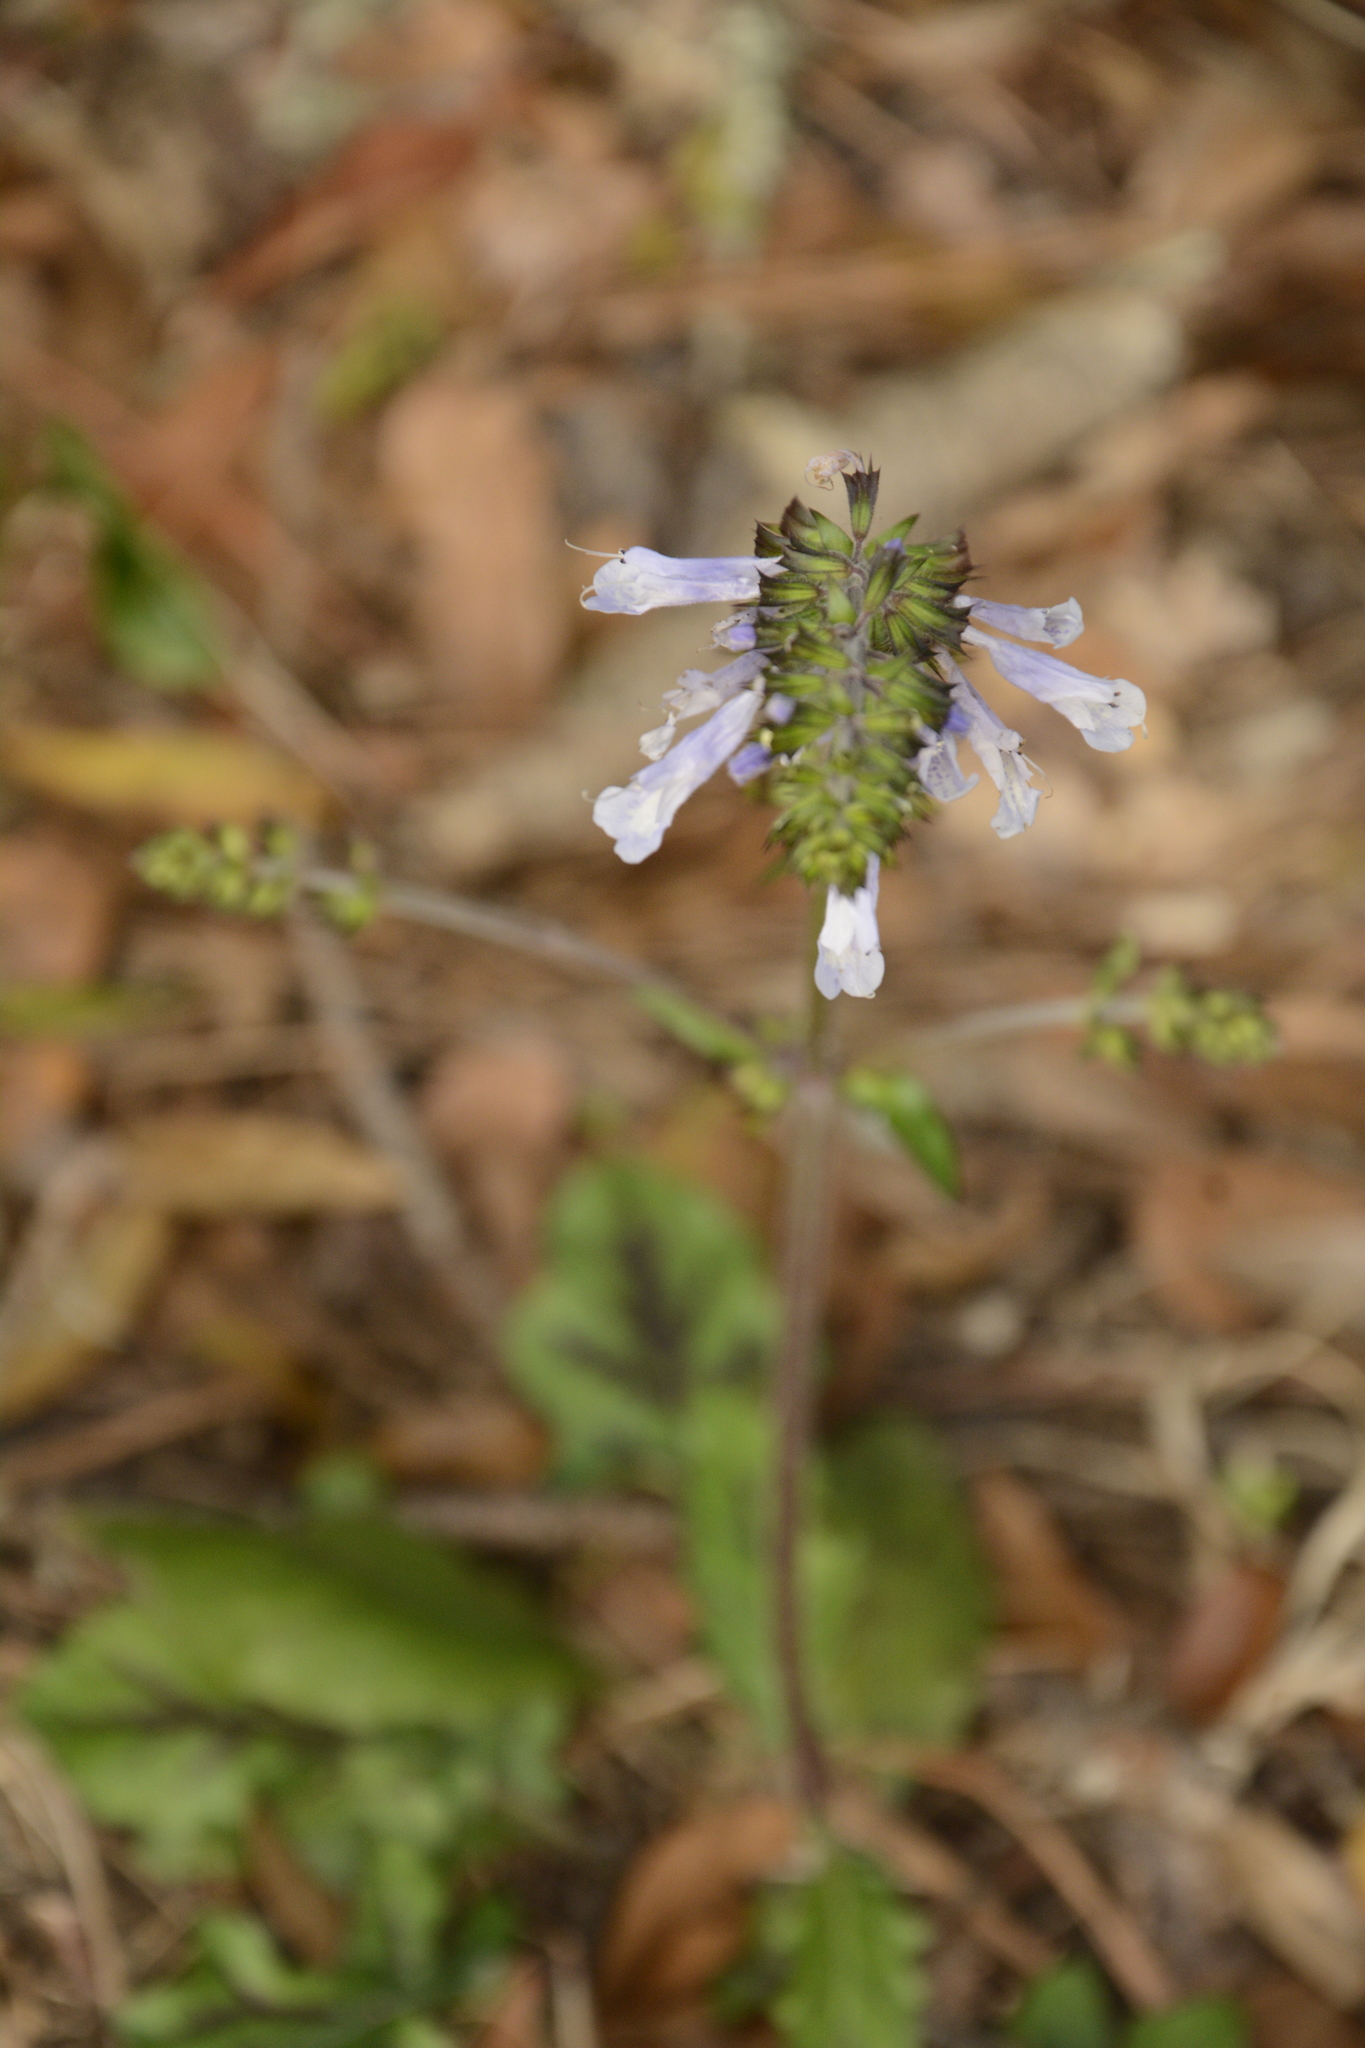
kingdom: Plantae
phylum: Tracheophyta
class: Magnoliopsida
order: Lamiales
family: Lamiaceae
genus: Salvia
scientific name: Salvia lyrata
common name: Cancerweed
